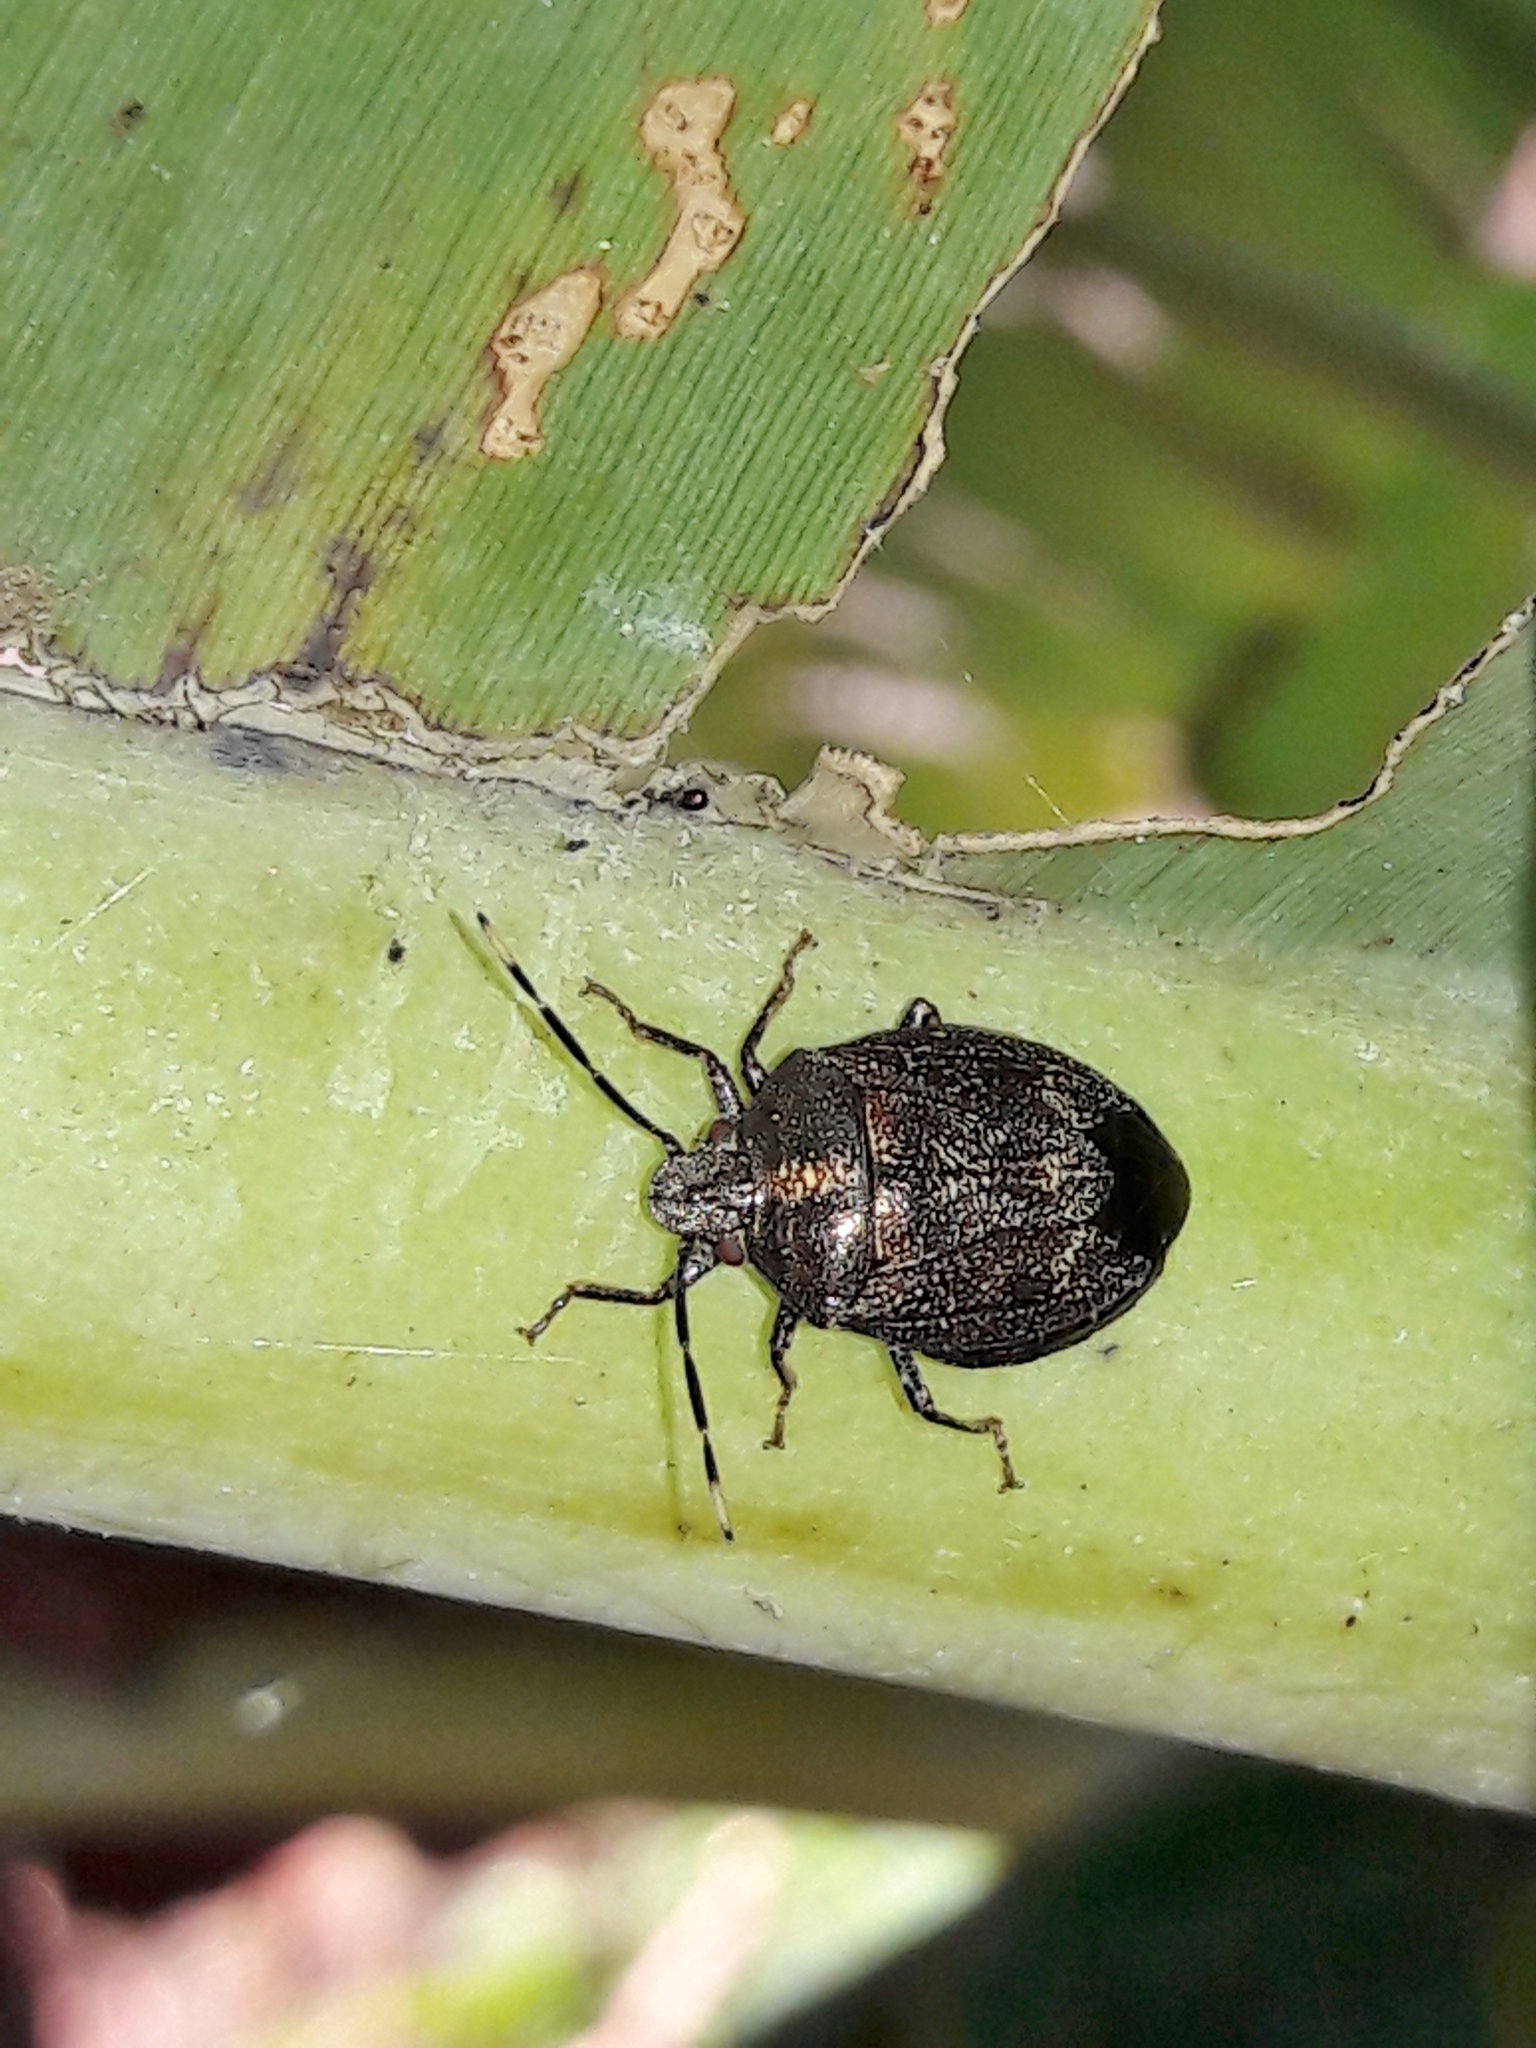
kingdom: Animalia
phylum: Arthropoda
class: Insecta
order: Hemiptera
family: Pentatomidae
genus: Antiteuchus
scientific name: Antiteuchus tripterus
